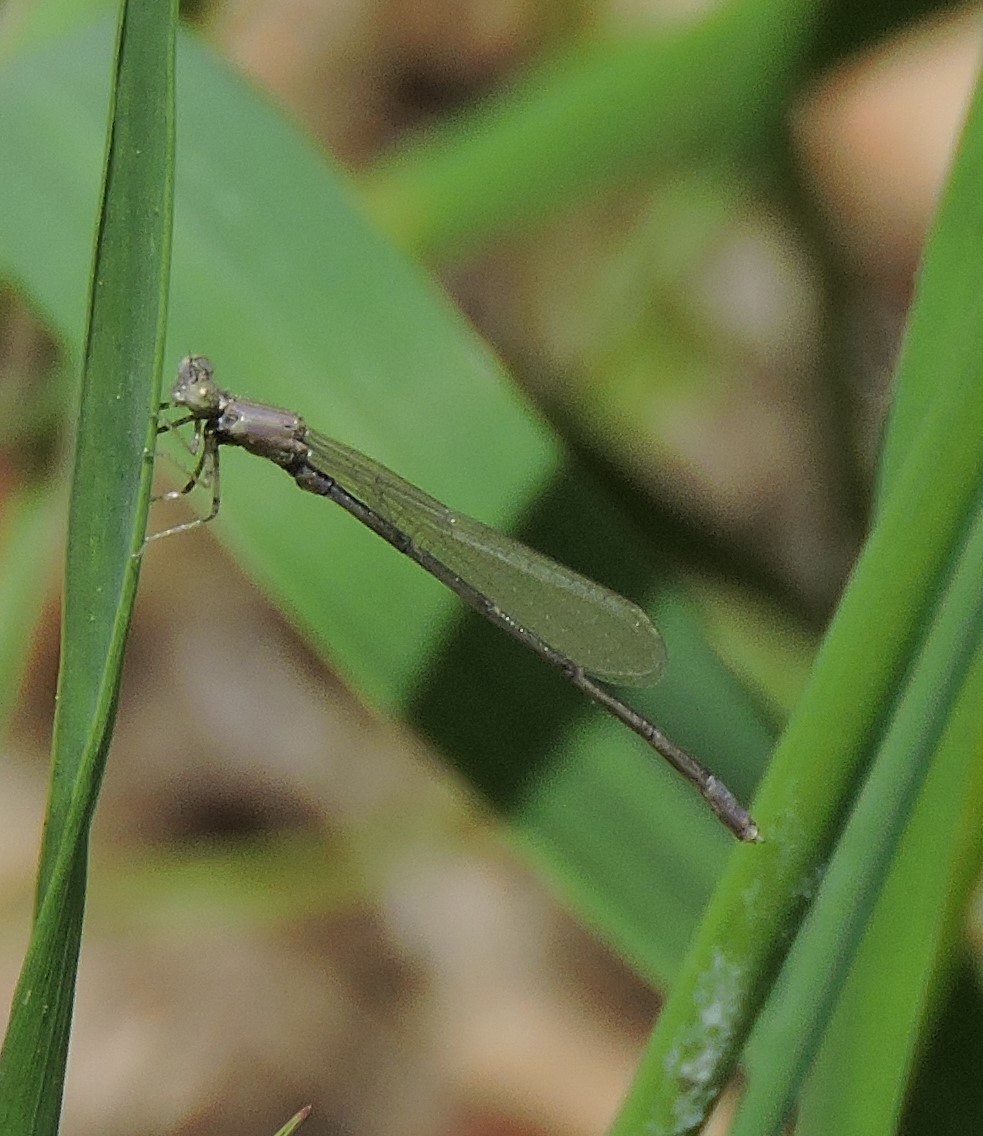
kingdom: Animalia
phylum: Arthropoda
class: Insecta
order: Odonata
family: Coenagrionidae
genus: Enallagma
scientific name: Enallagma traviatum
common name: Slender bluet
